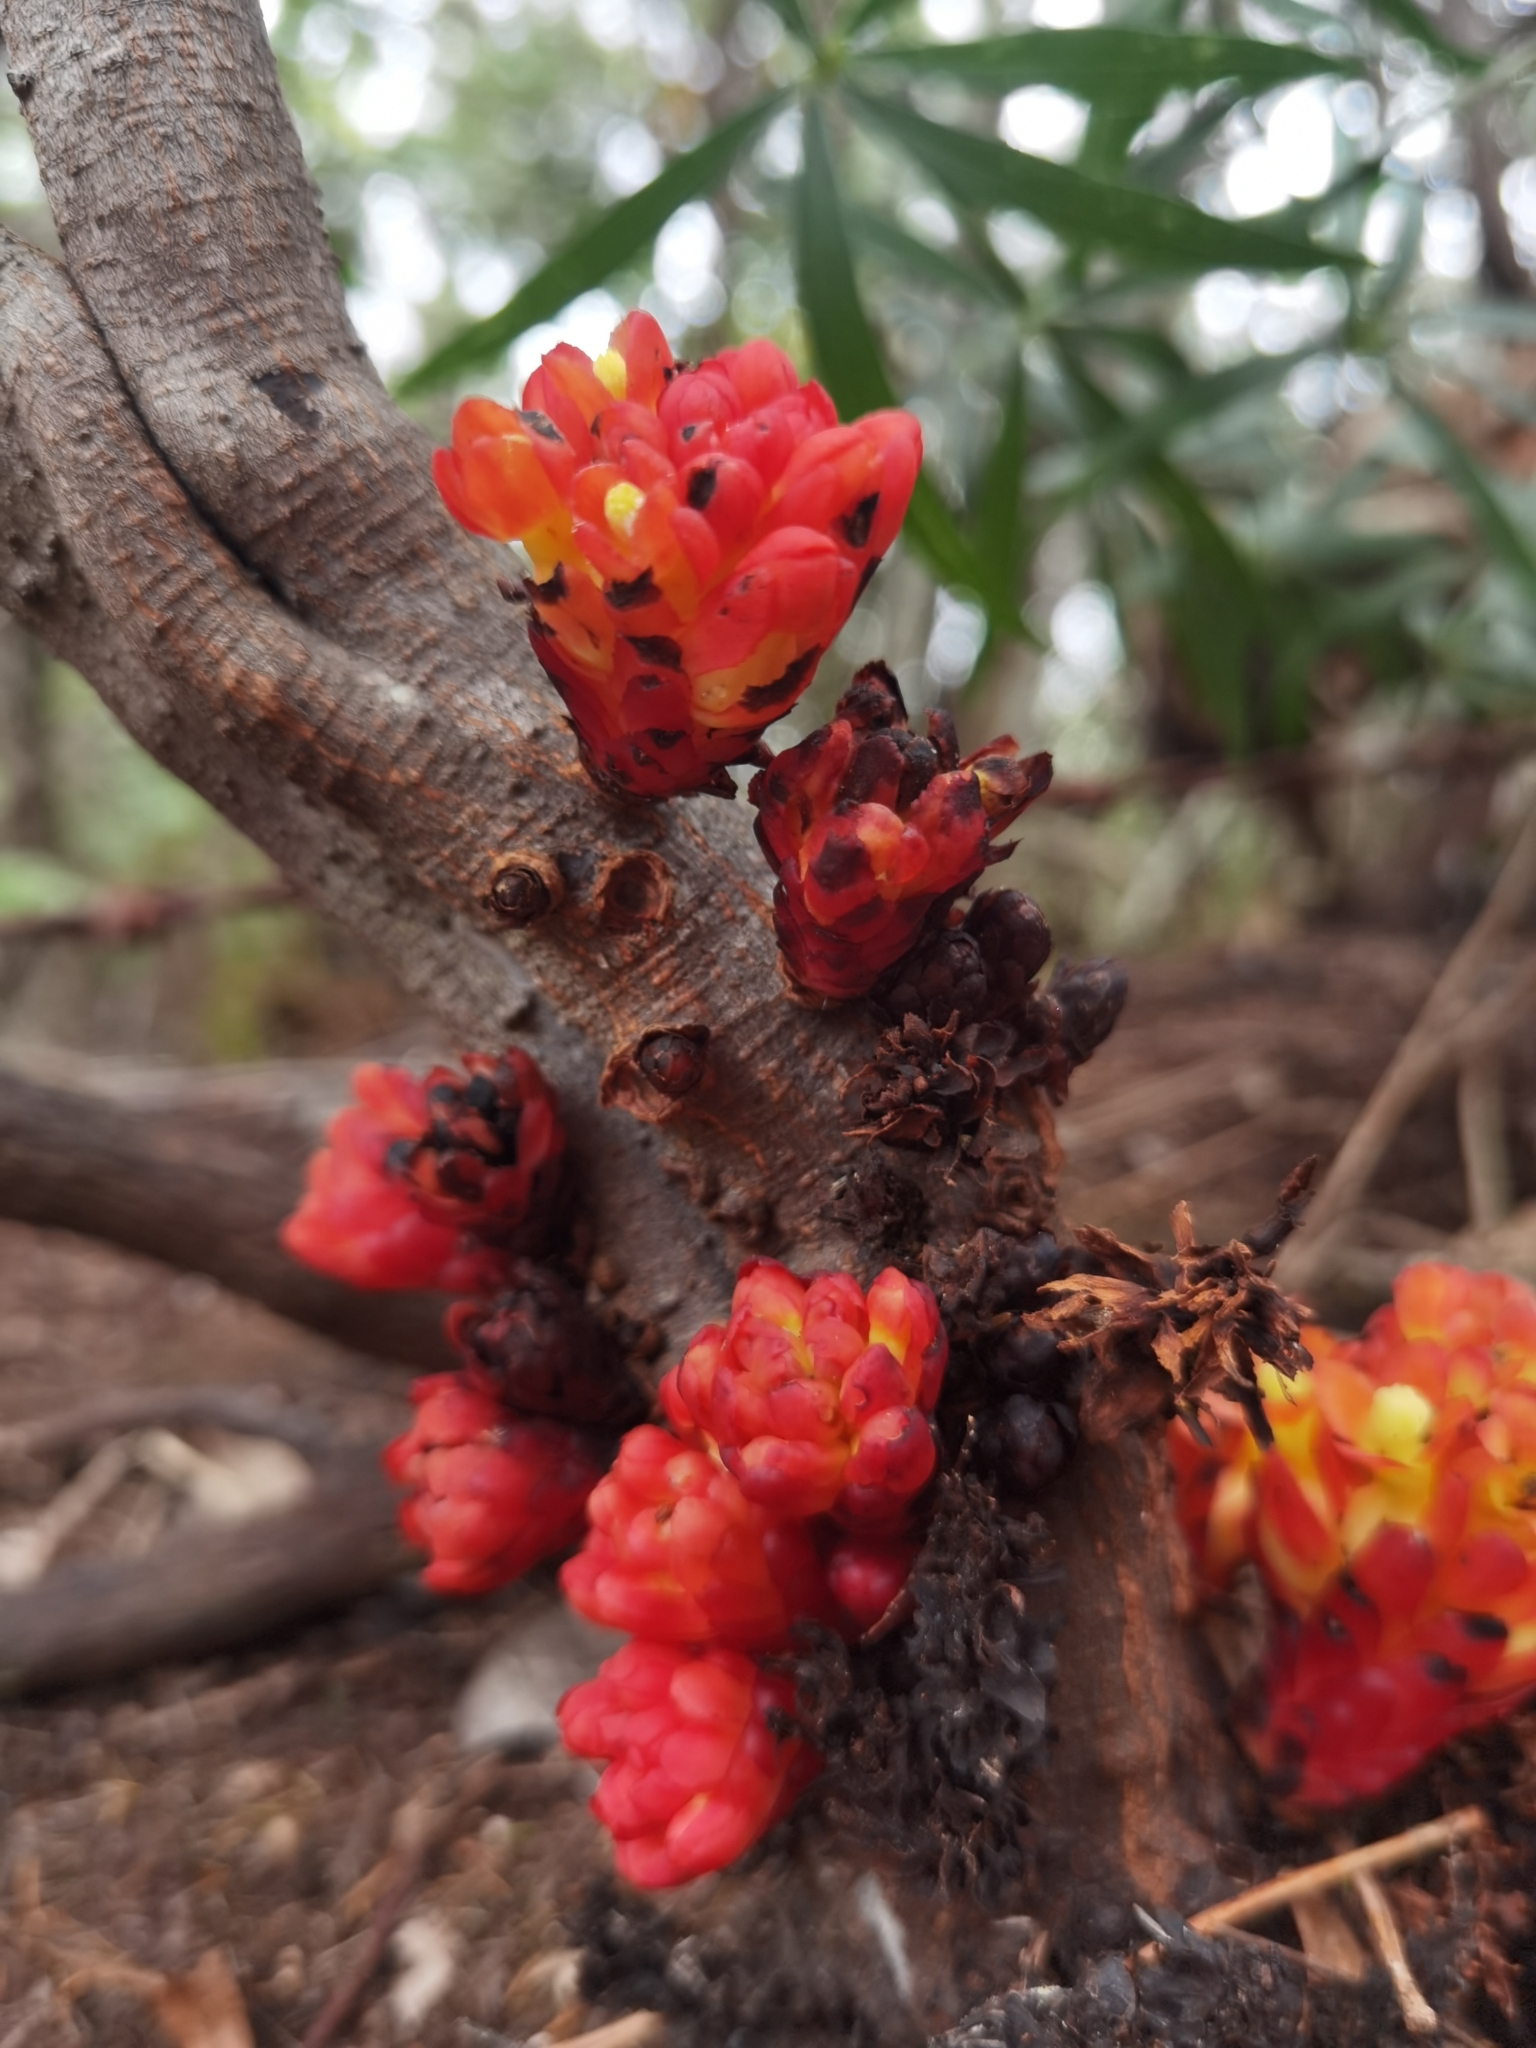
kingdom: Plantae
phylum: Tracheophyta
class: Magnoliopsida
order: Malvales
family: Cytinaceae
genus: Cytinus
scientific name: Cytinus hypocistis
